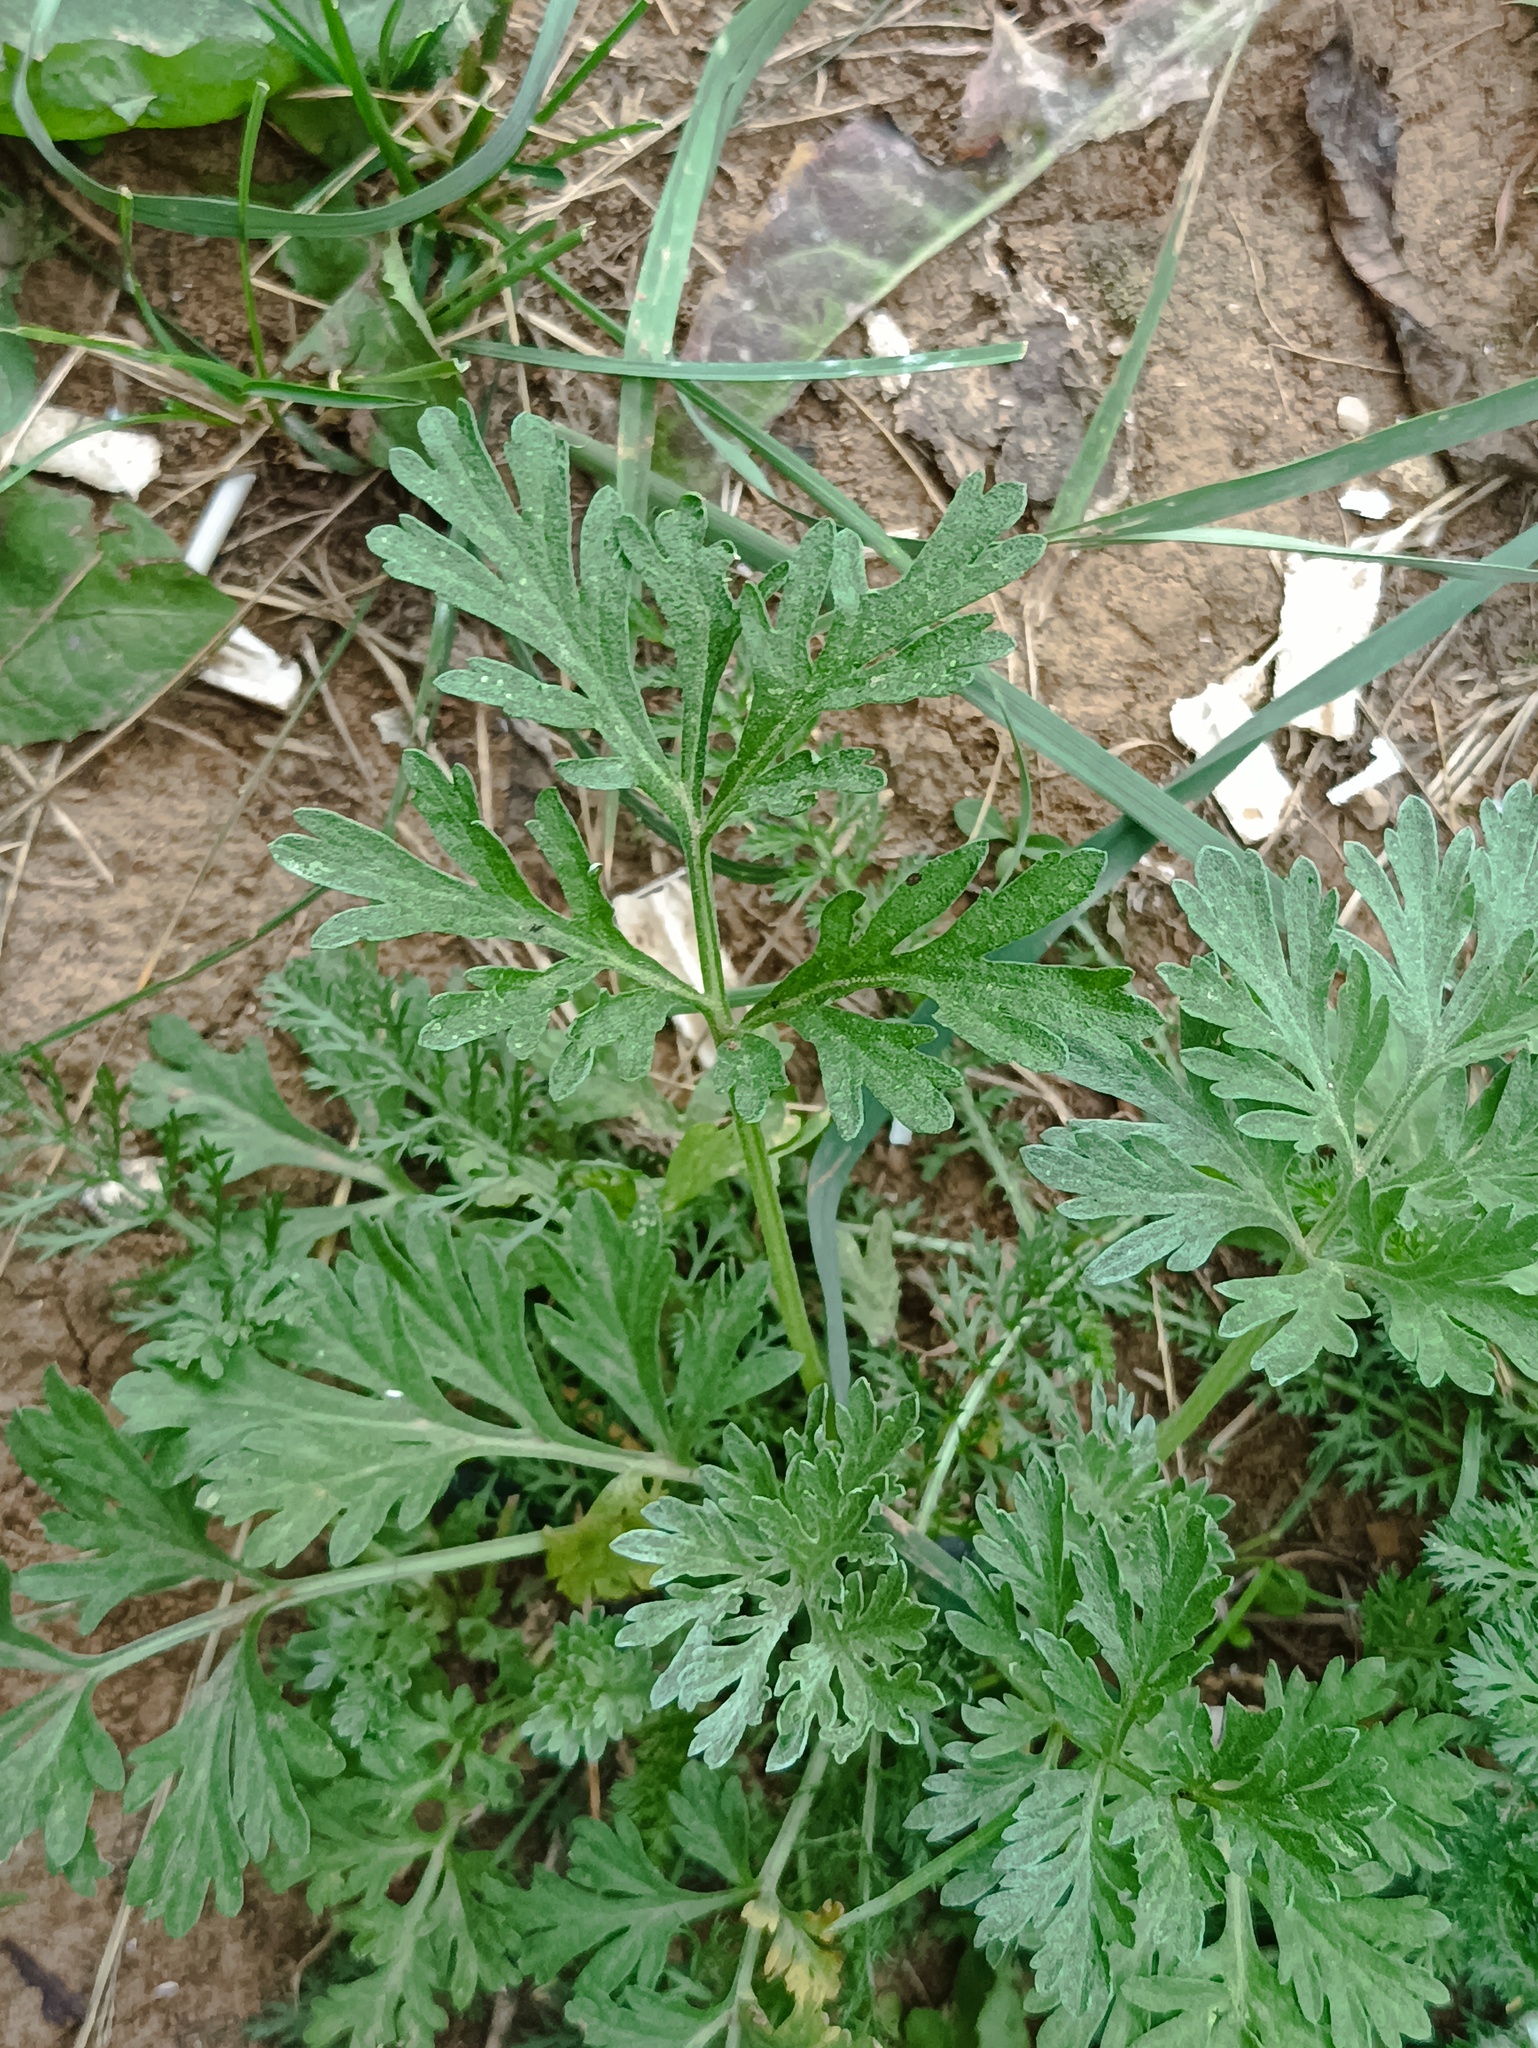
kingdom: Plantae
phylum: Tracheophyta
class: Magnoliopsida
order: Asterales
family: Asteraceae
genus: Artemisia
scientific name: Artemisia absinthium
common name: Wormwood
